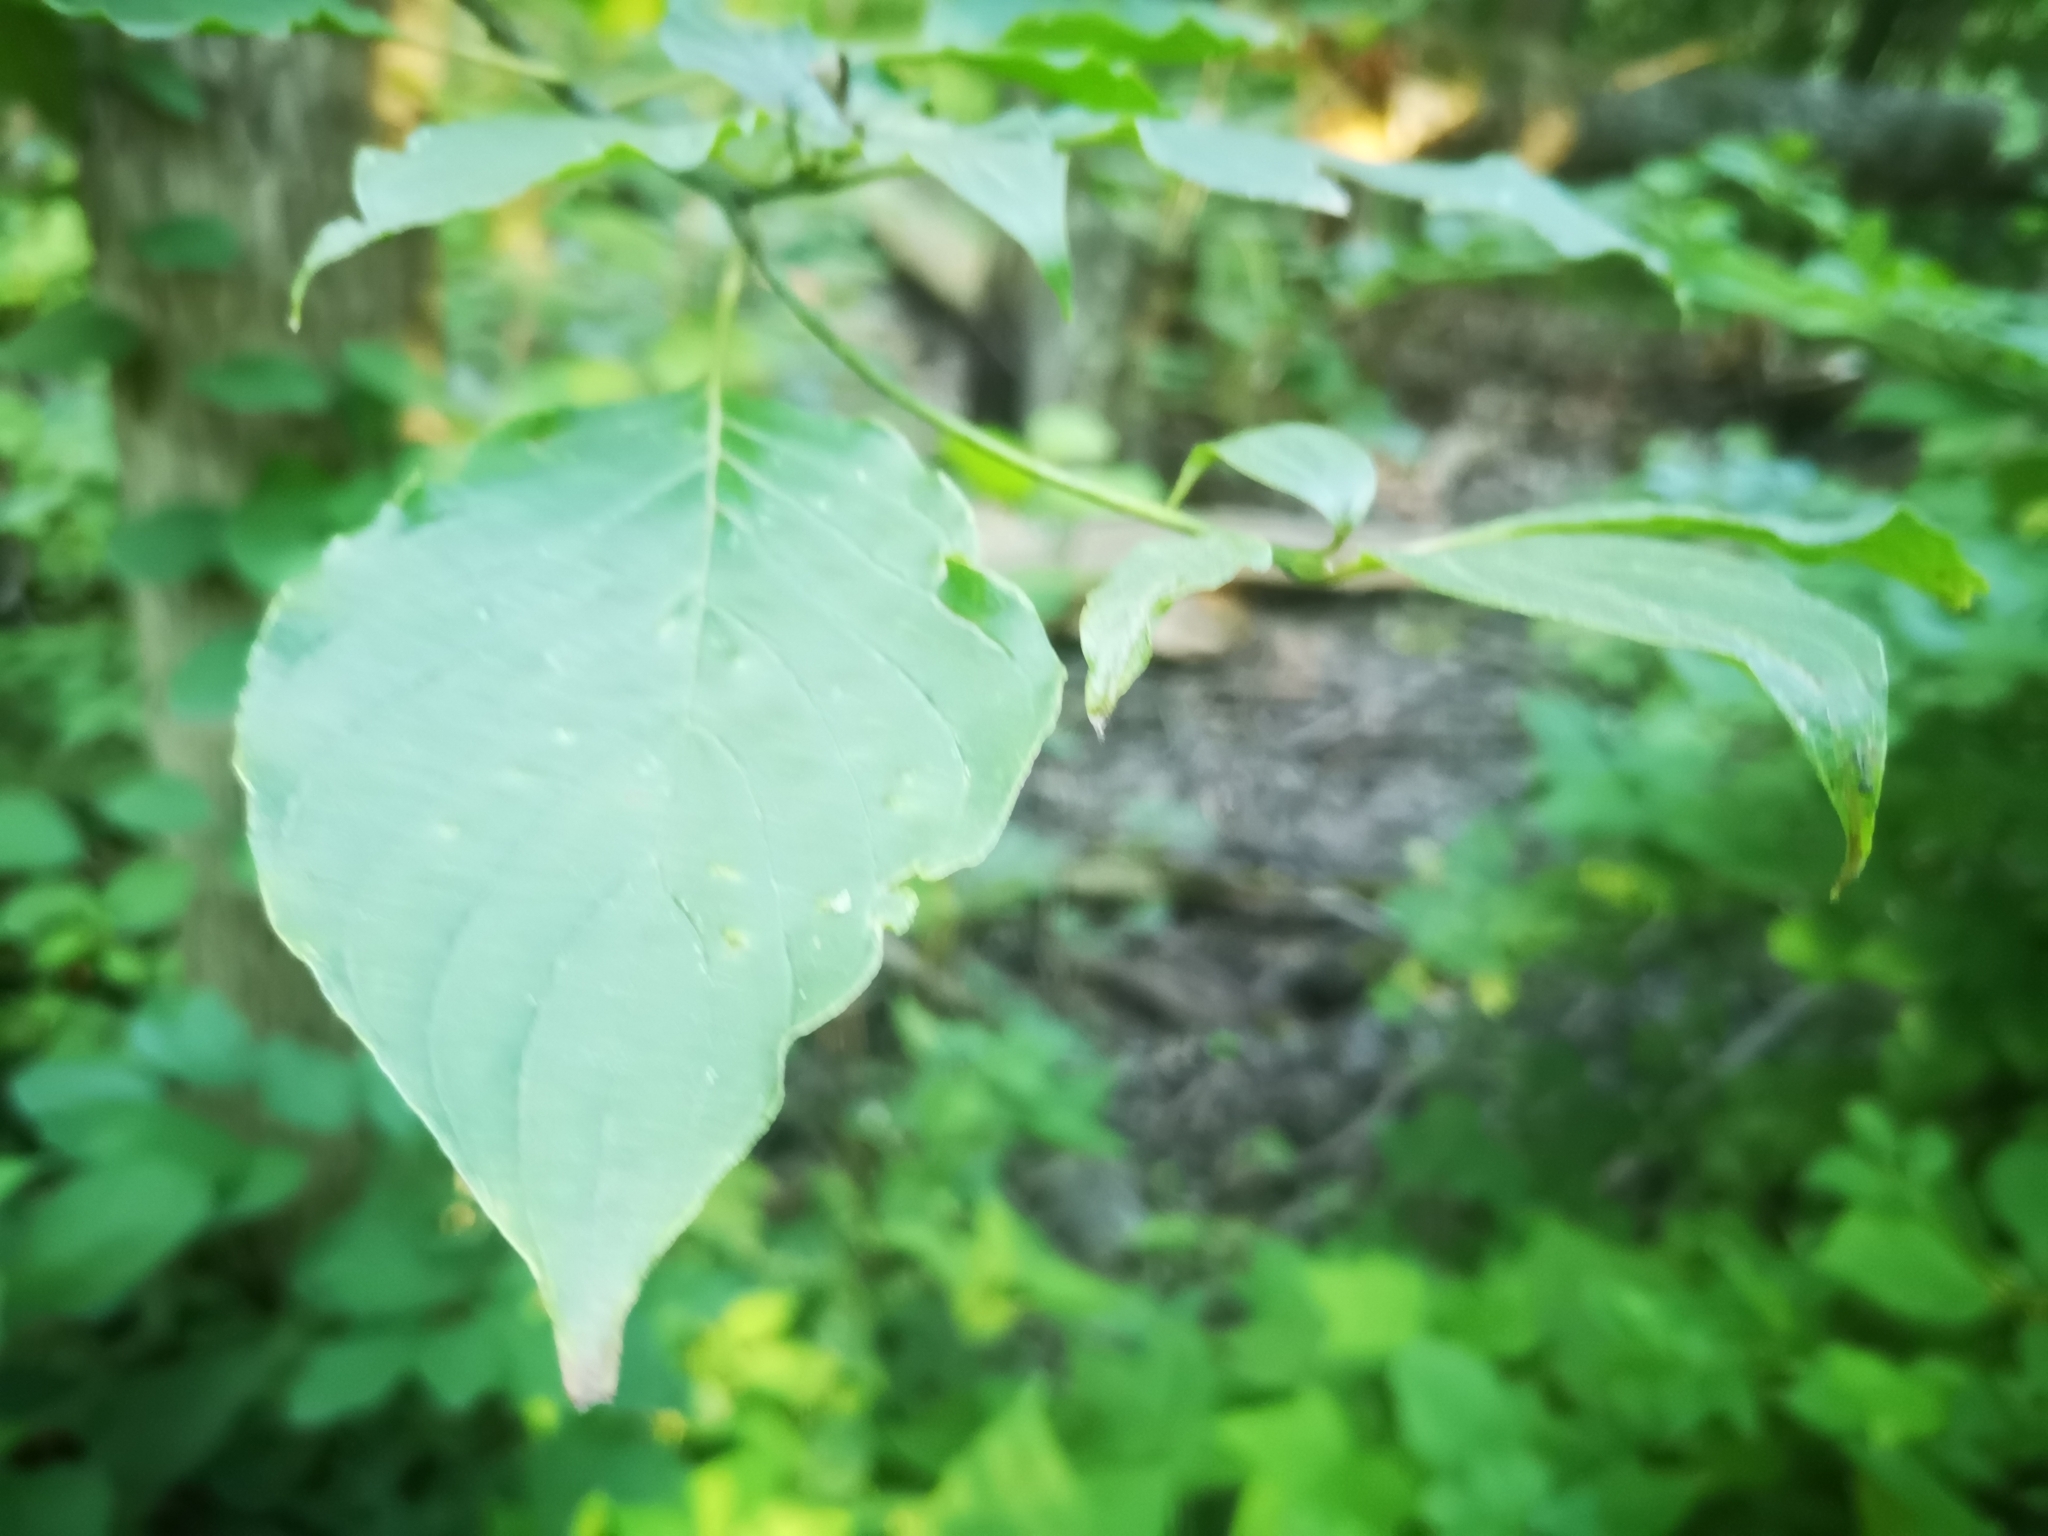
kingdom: Plantae
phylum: Tracheophyta
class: Magnoliopsida
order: Cornales
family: Cornaceae
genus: Cornus
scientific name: Cornus alternifolia
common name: Pagoda dogwood
